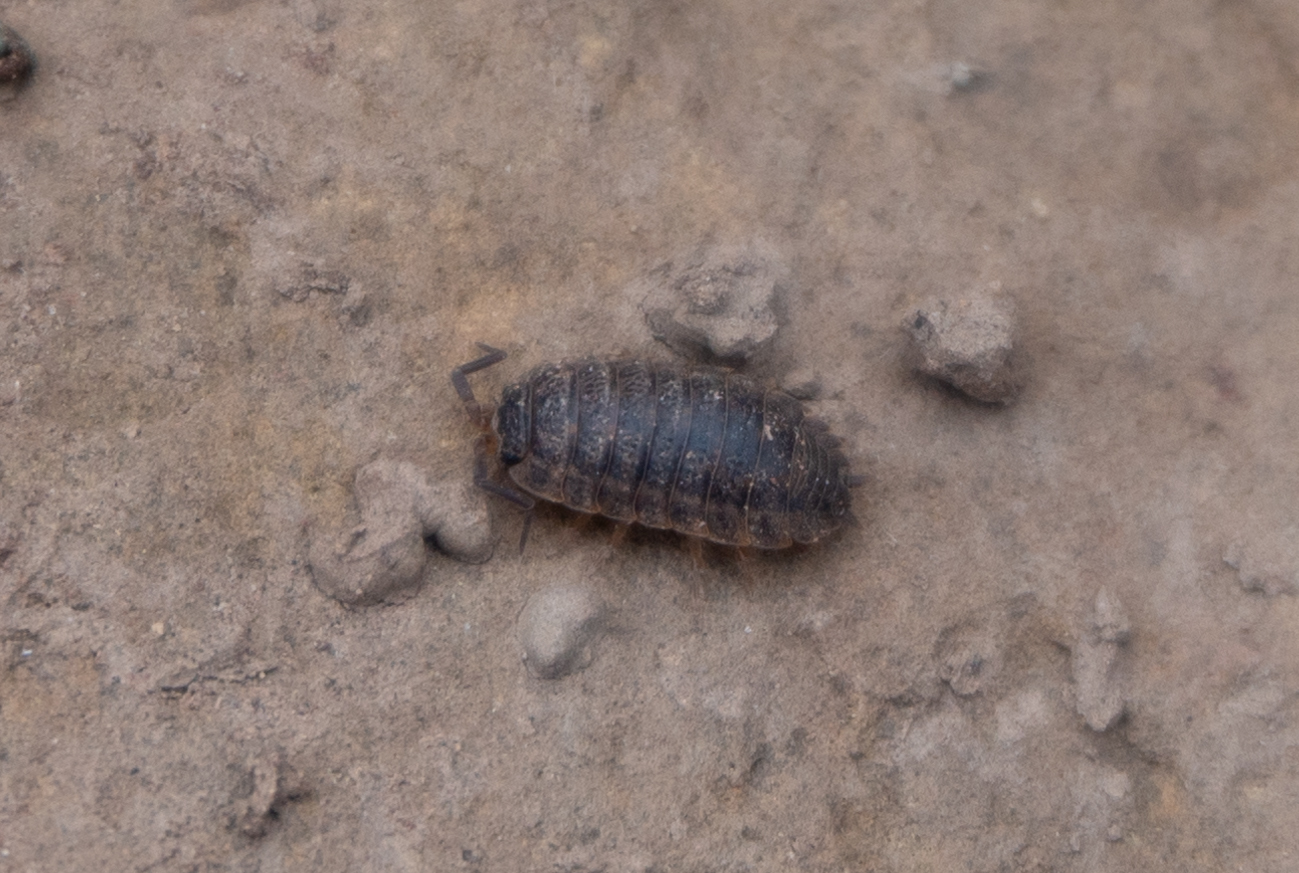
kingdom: Animalia
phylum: Arthropoda
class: Malacostraca
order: Isopoda
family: Trachelipodidae
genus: Trachelipus
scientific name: Trachelipus rathkii
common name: Isopod
